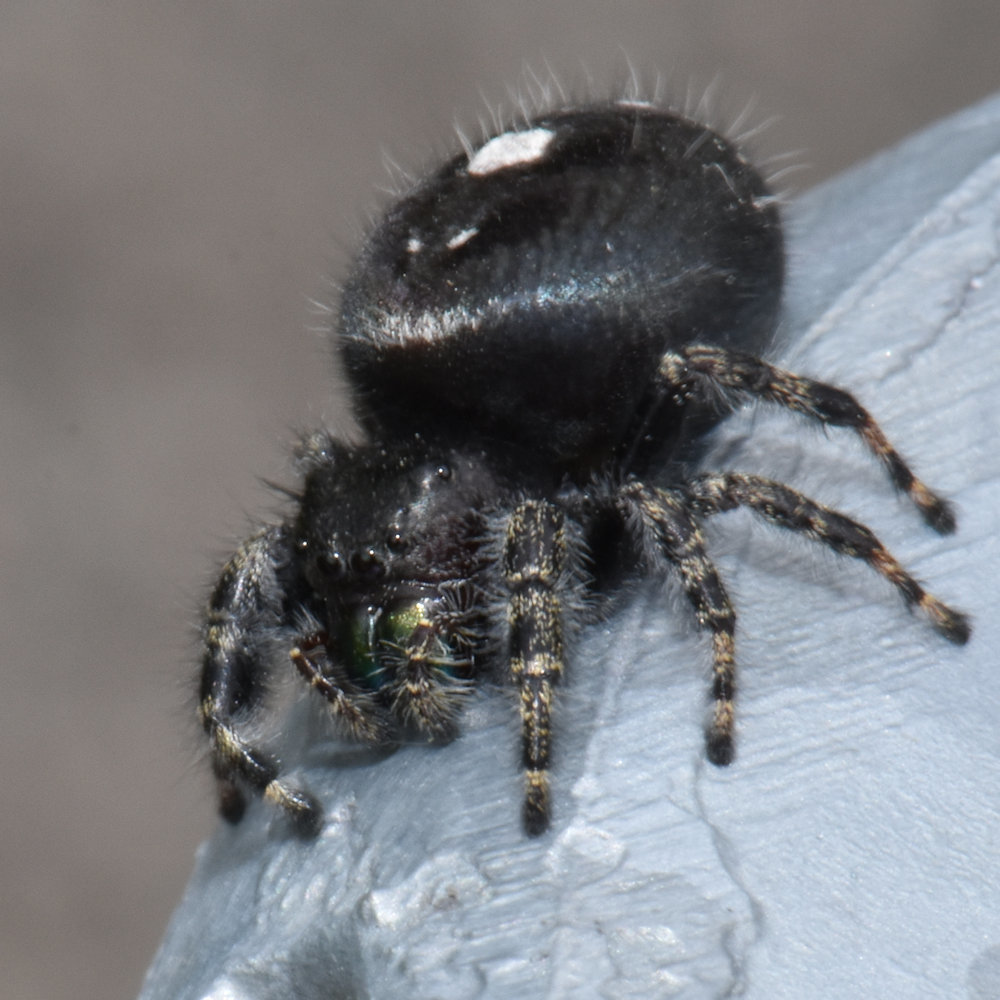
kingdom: Animalia
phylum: Arthropoda
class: Arachnida
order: Araneae
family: Salticidae
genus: Phidippus
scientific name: Phidippus audax
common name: Bold jumper
